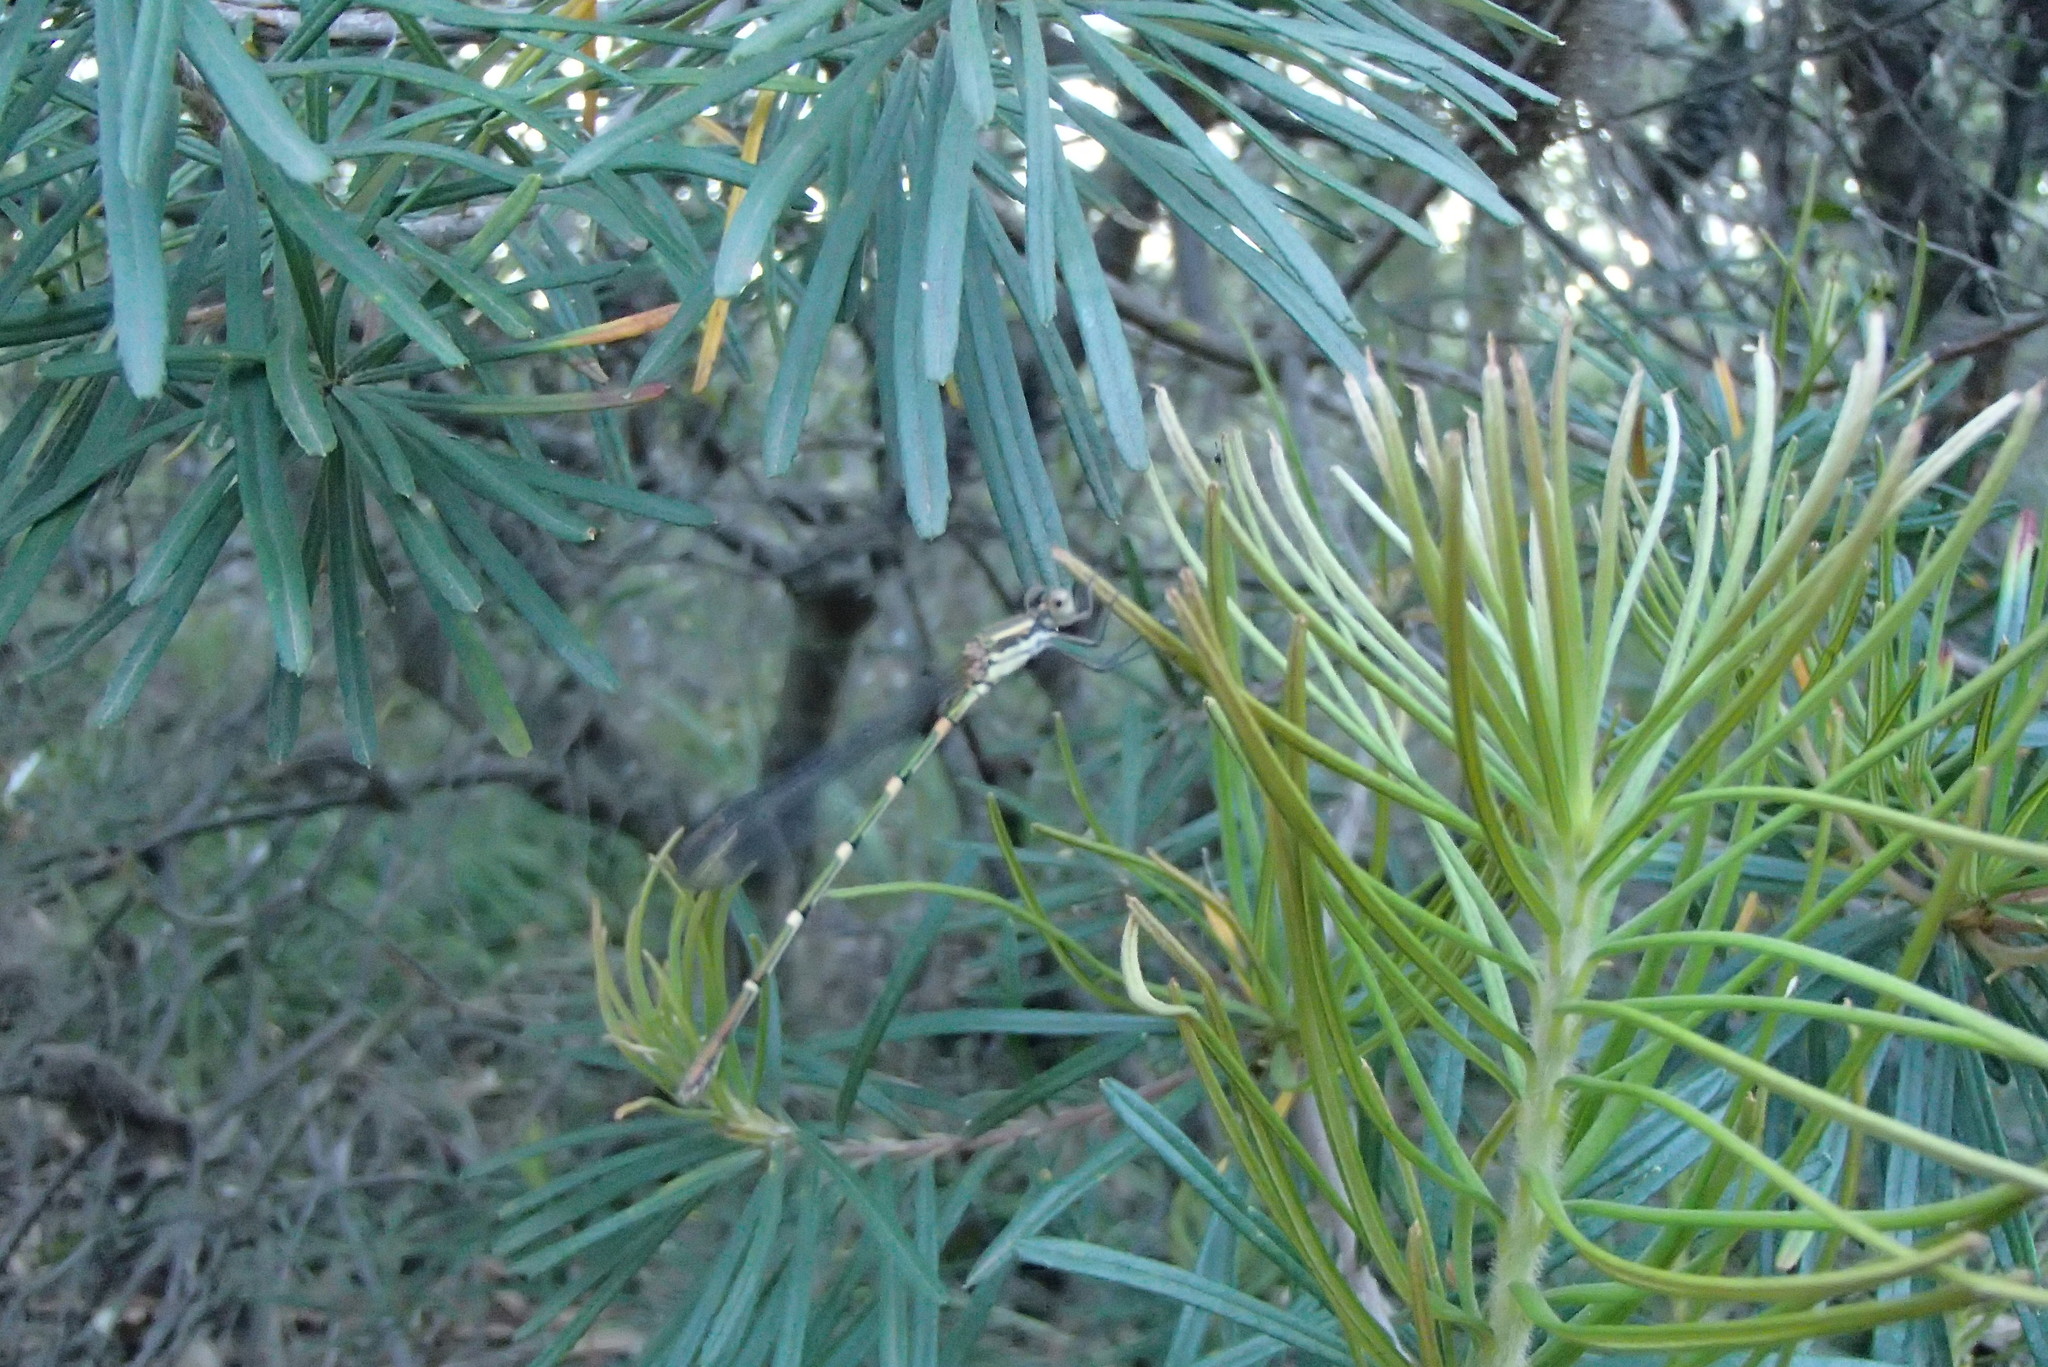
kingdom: Animalia
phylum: Arthropoda
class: Insecta
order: Odonata
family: Lestidae
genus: Austrolestes
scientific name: Austrolestes leda
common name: Wandering ringtail
